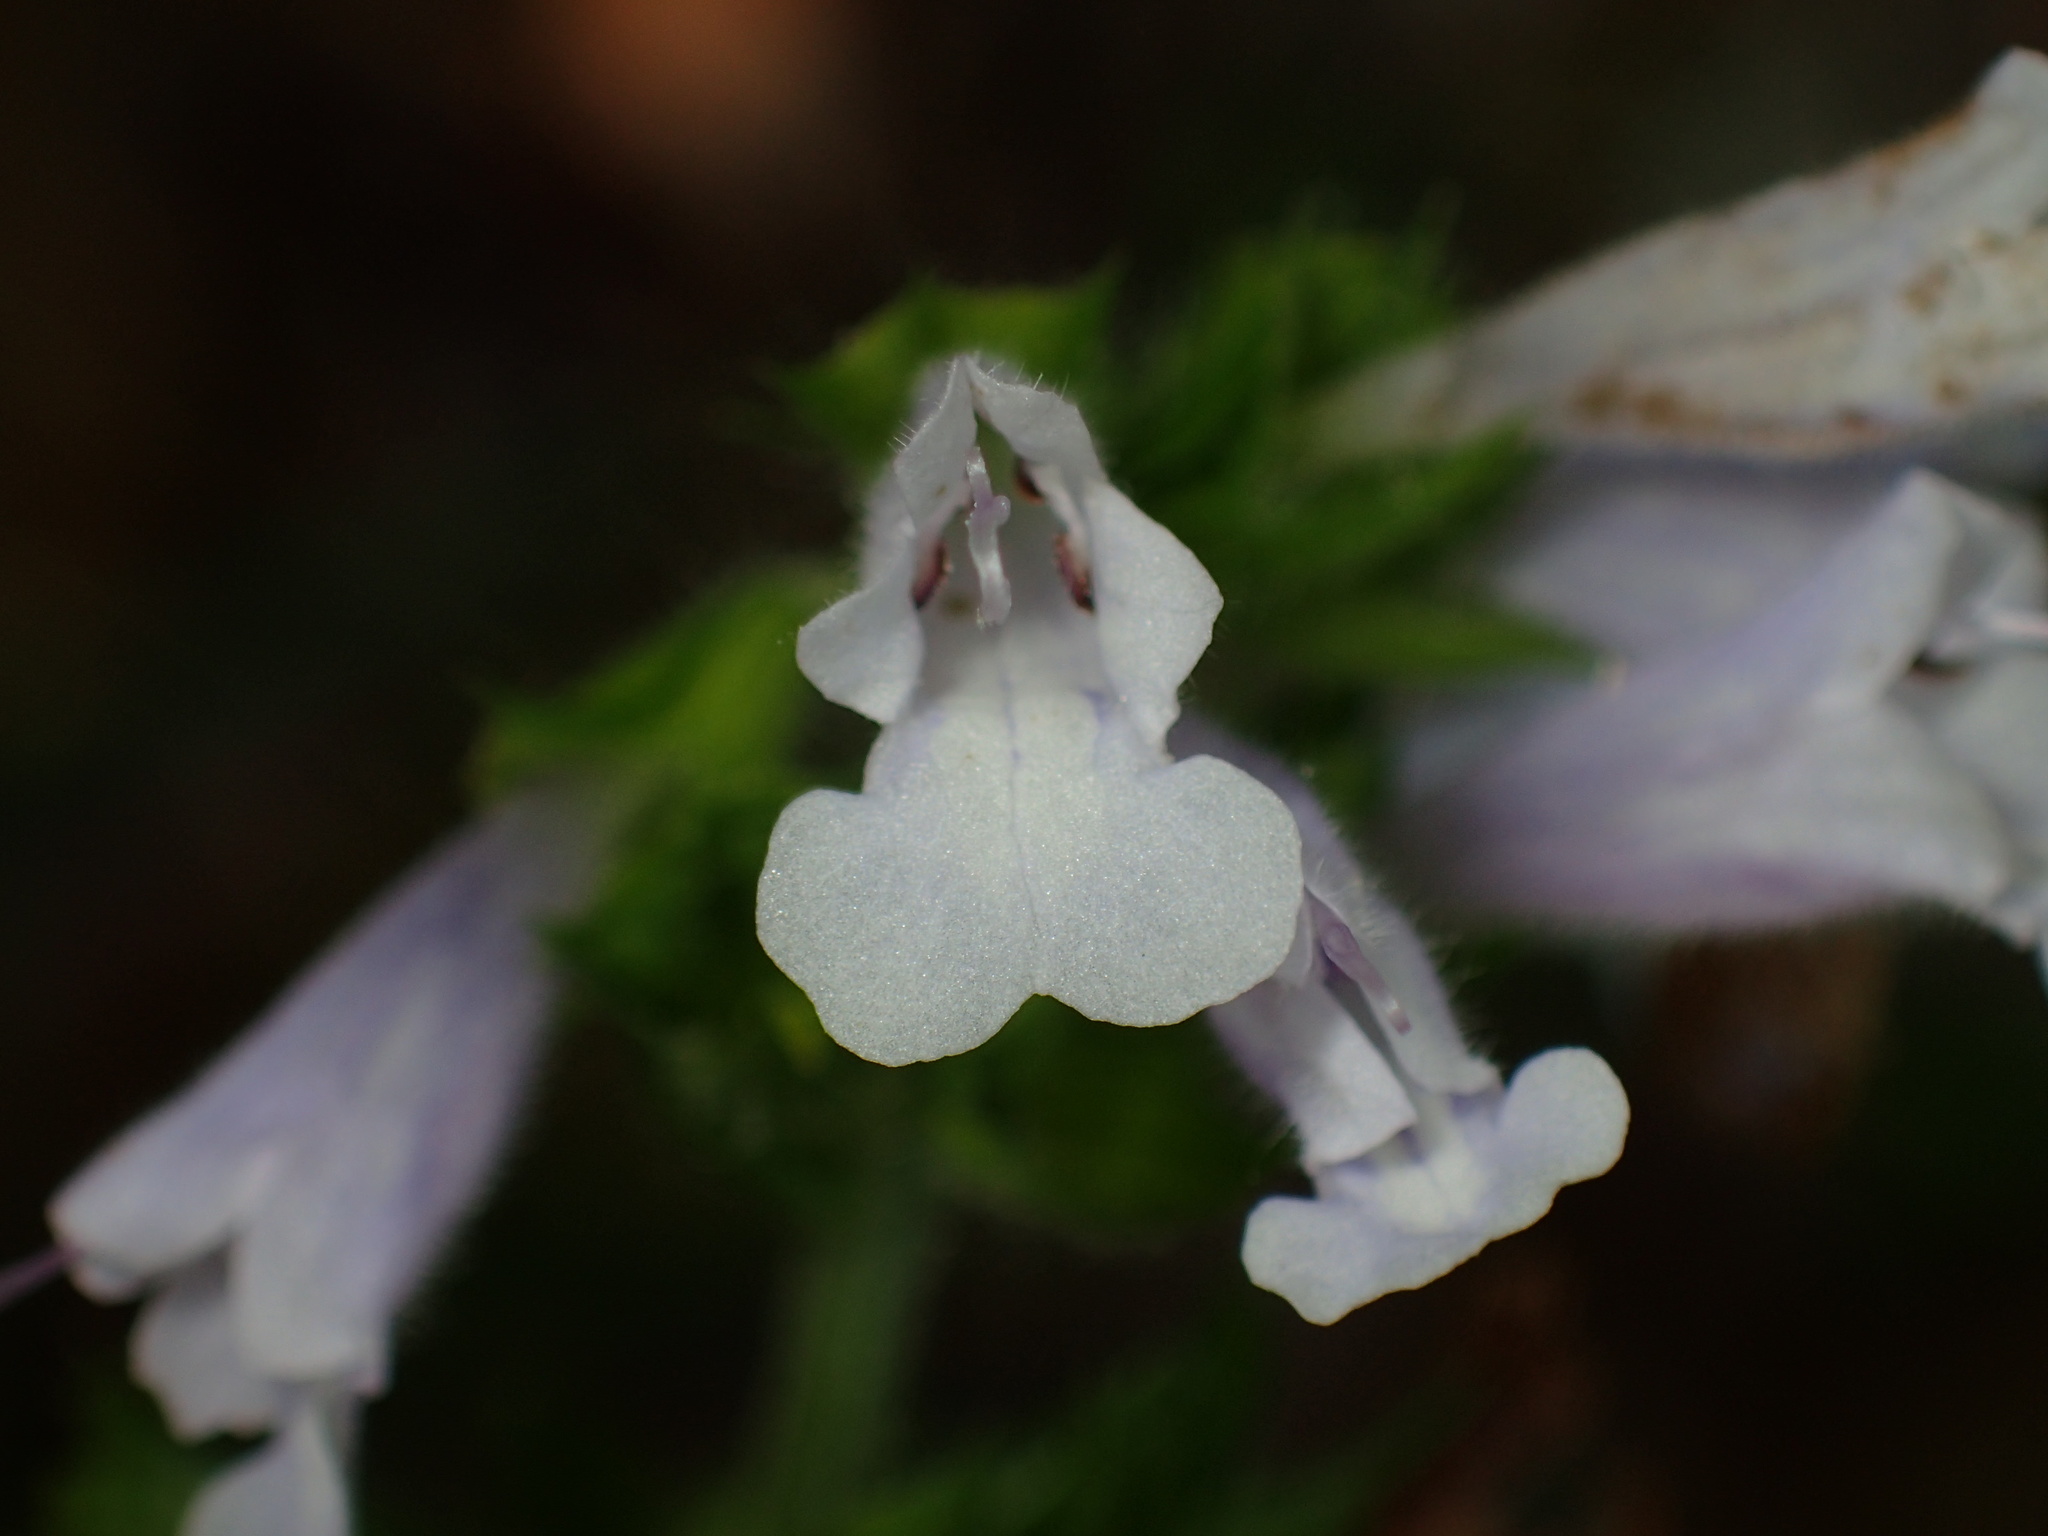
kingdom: Plantae
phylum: Tracheophyta
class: Magnoliopsida
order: Lamiales
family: Lamiaceae
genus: Salvia
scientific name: Salvia lyrata
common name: Cancerweed
